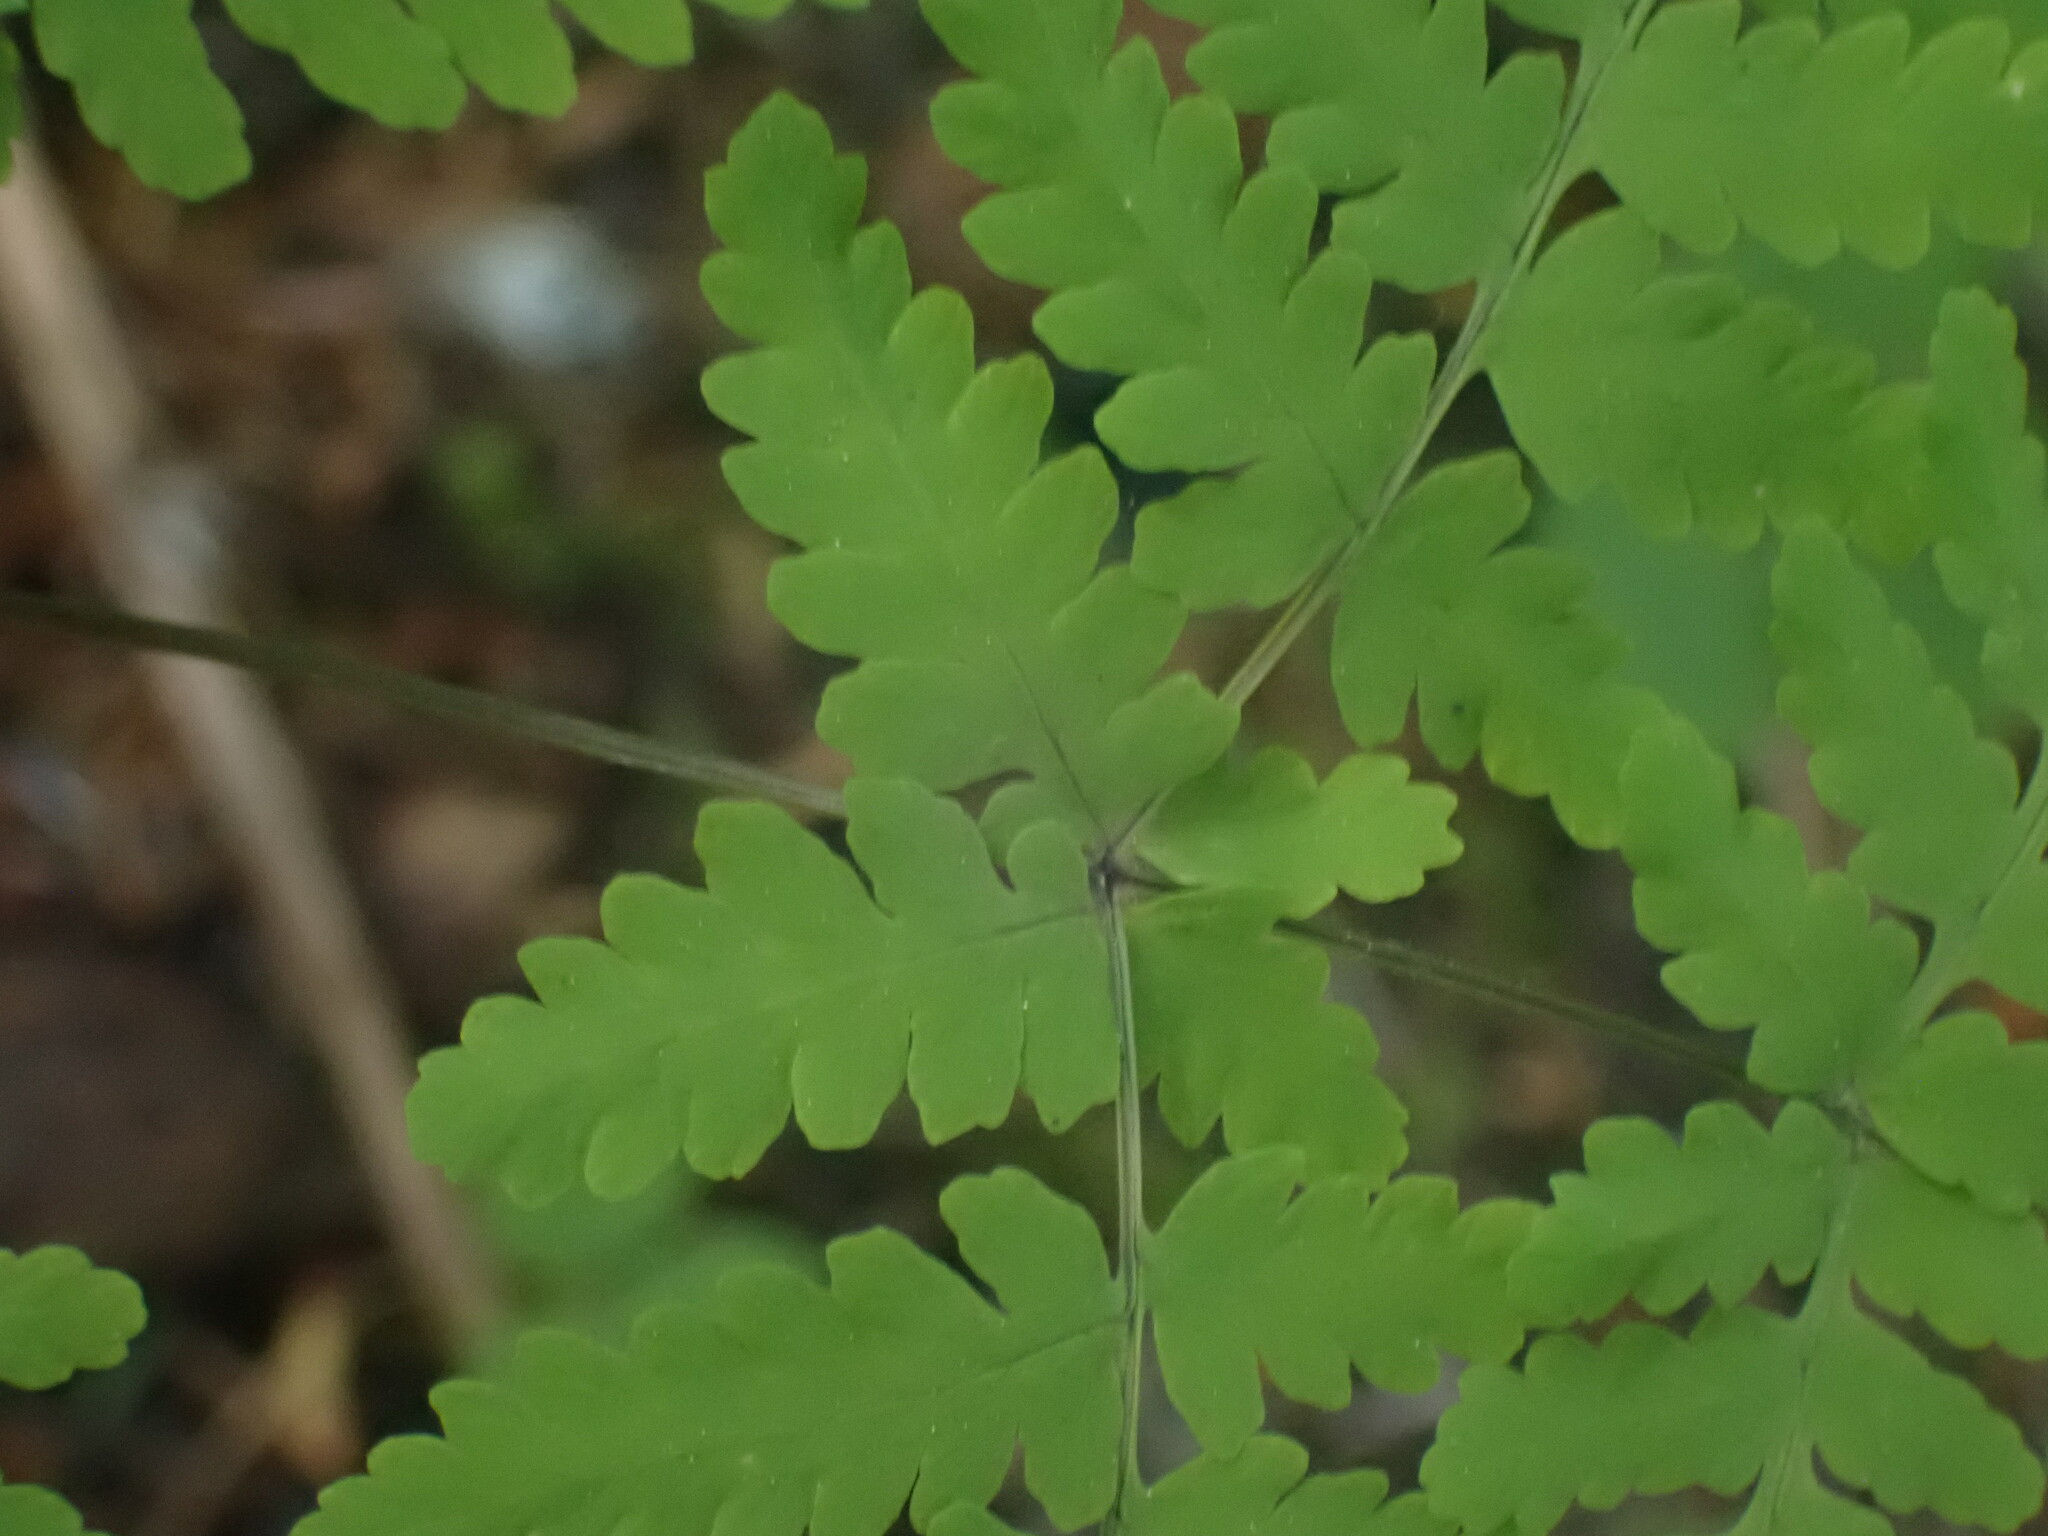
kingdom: Plantae
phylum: Tracheophyta
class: Polypodiopsida
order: Polypodiales
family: Cystopteridaceae
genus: Gymnocarpium
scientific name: Gymnocarpium disjunctum
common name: Western oak fern
